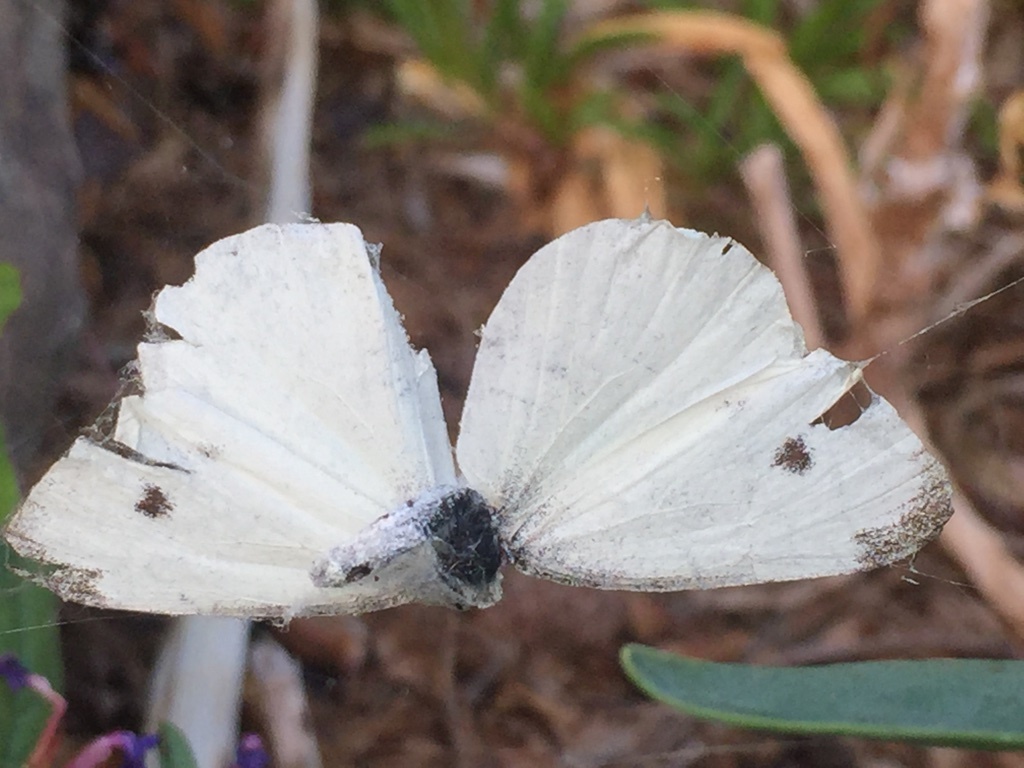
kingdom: Animalia
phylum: Arthropoda
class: Insecta
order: Lepidoptera
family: Pieridae
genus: Pieris
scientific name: Pieris rapae
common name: Small white
